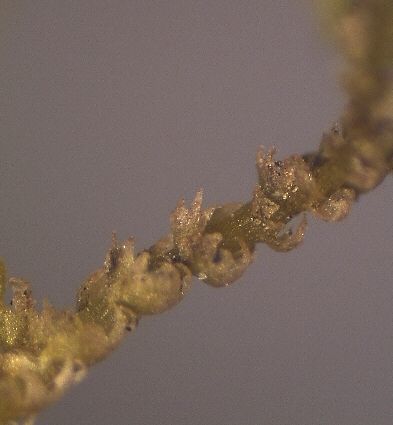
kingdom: Plantae
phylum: Marchantiophyta
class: Jungermanniopsida
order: Jungermanniales
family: Lepidoziaceae
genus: Lepidozia
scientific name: Lepidozia obtusiloba
